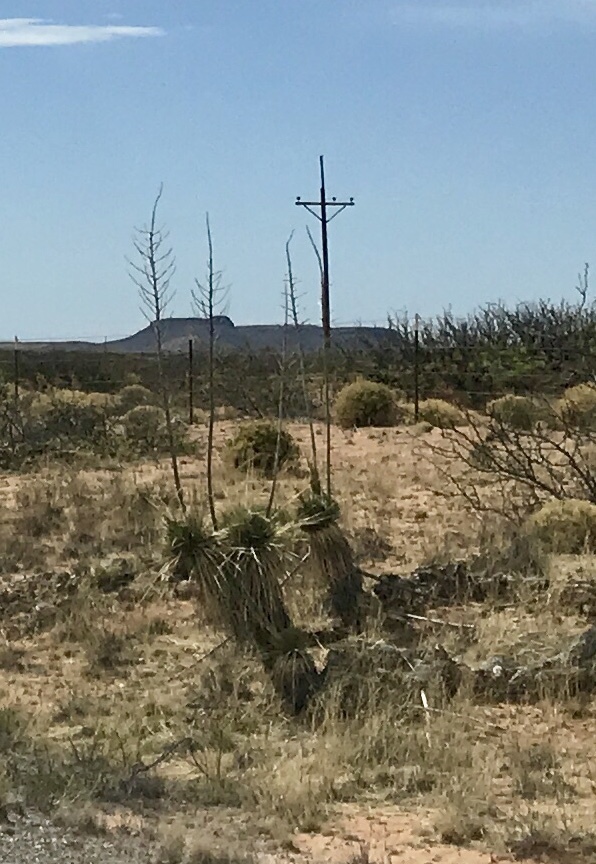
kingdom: Plantae
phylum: Tracheophyta
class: Liliopsida
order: Asparagales
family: Asparagaceae
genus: Yucca
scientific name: Yucca elata
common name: Palmella
